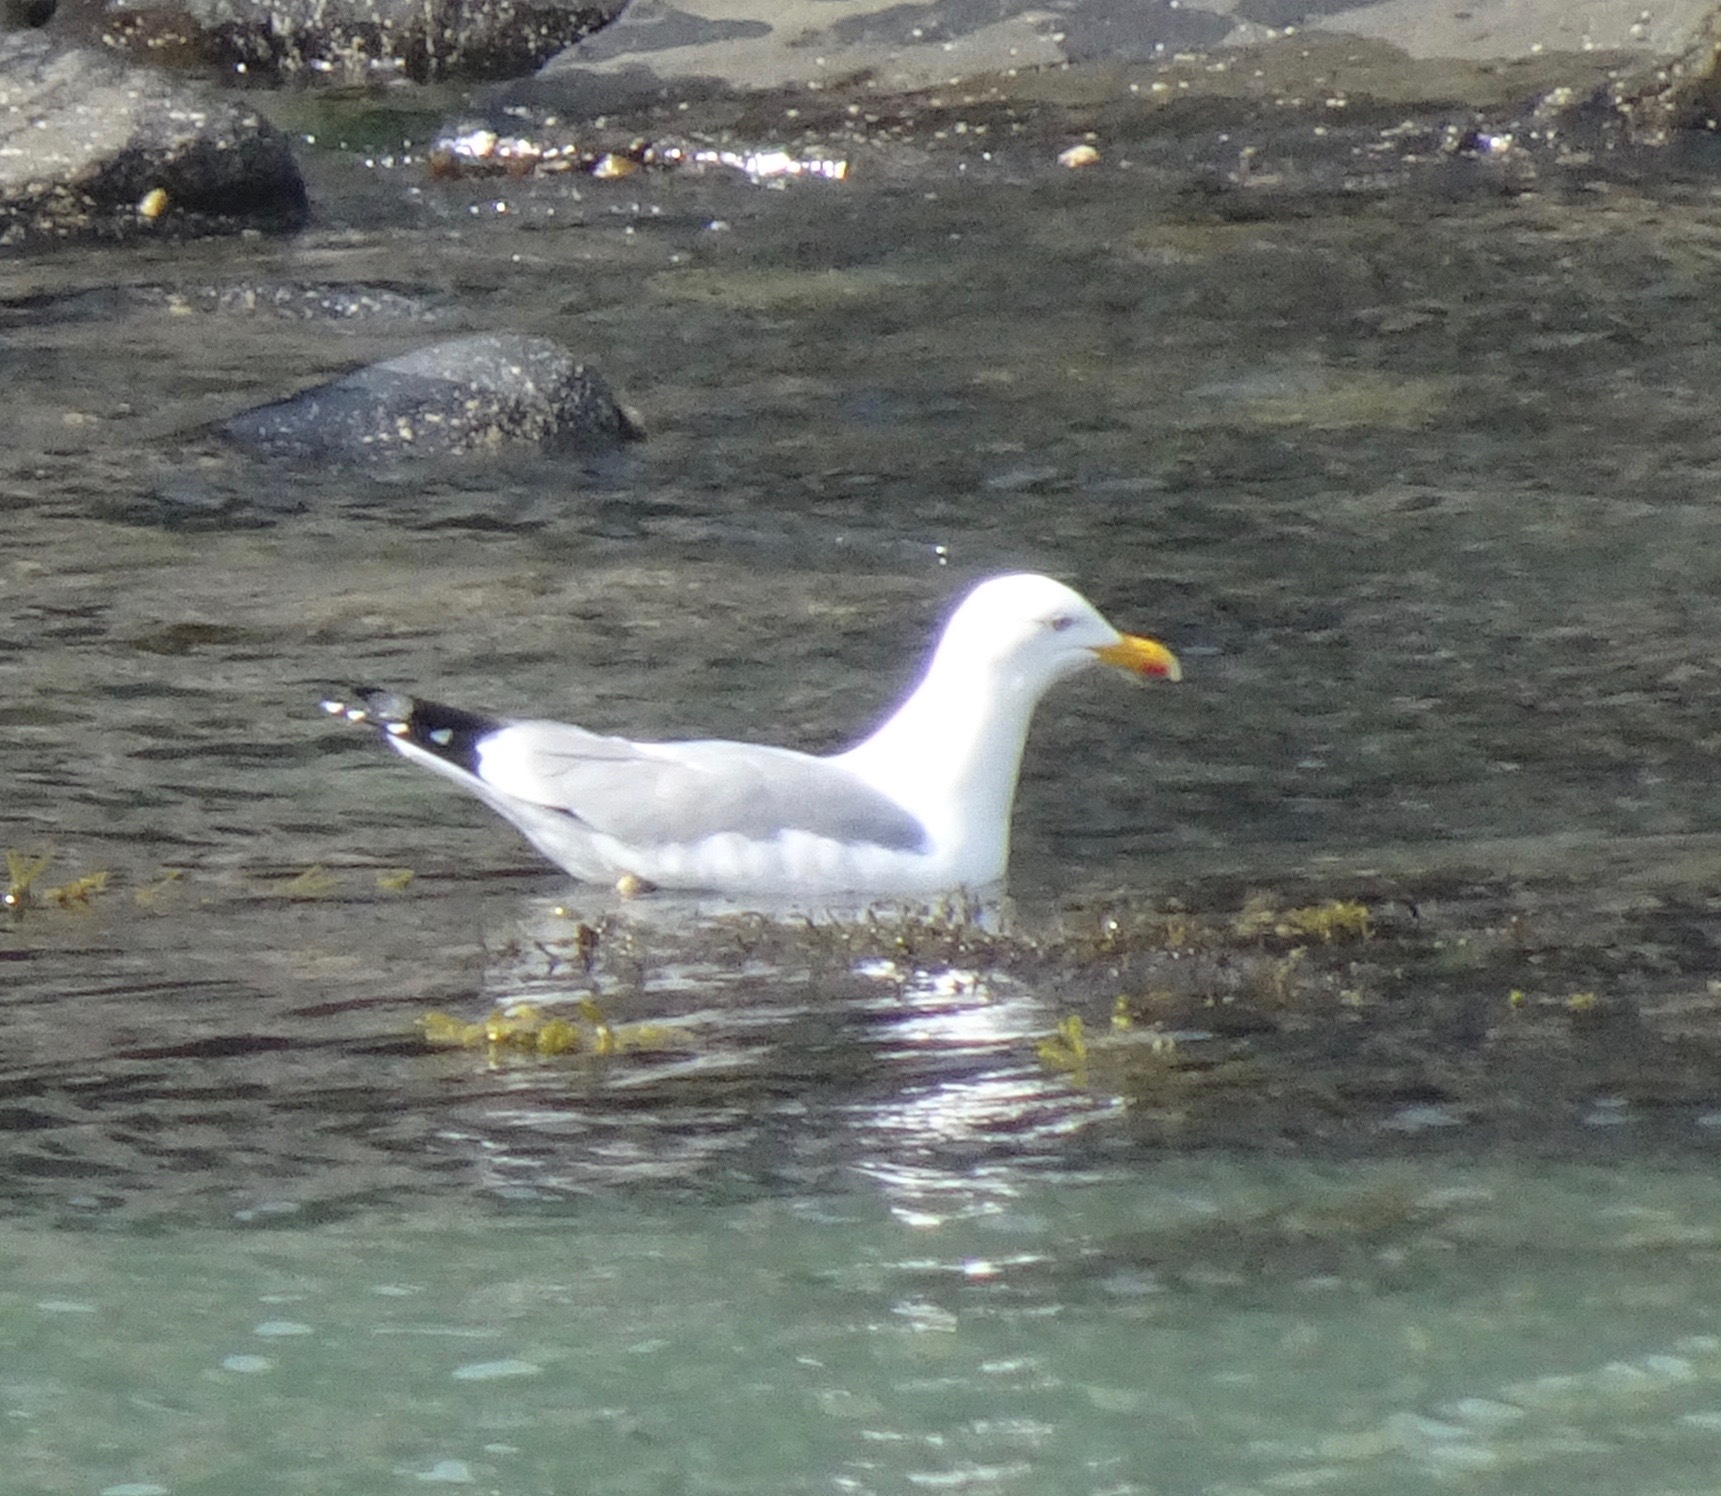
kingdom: Animalia
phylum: Chordata
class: Aves
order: Charadriiformes
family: Laridae
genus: Larus
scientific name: Larus argentatus
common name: Herring gull
